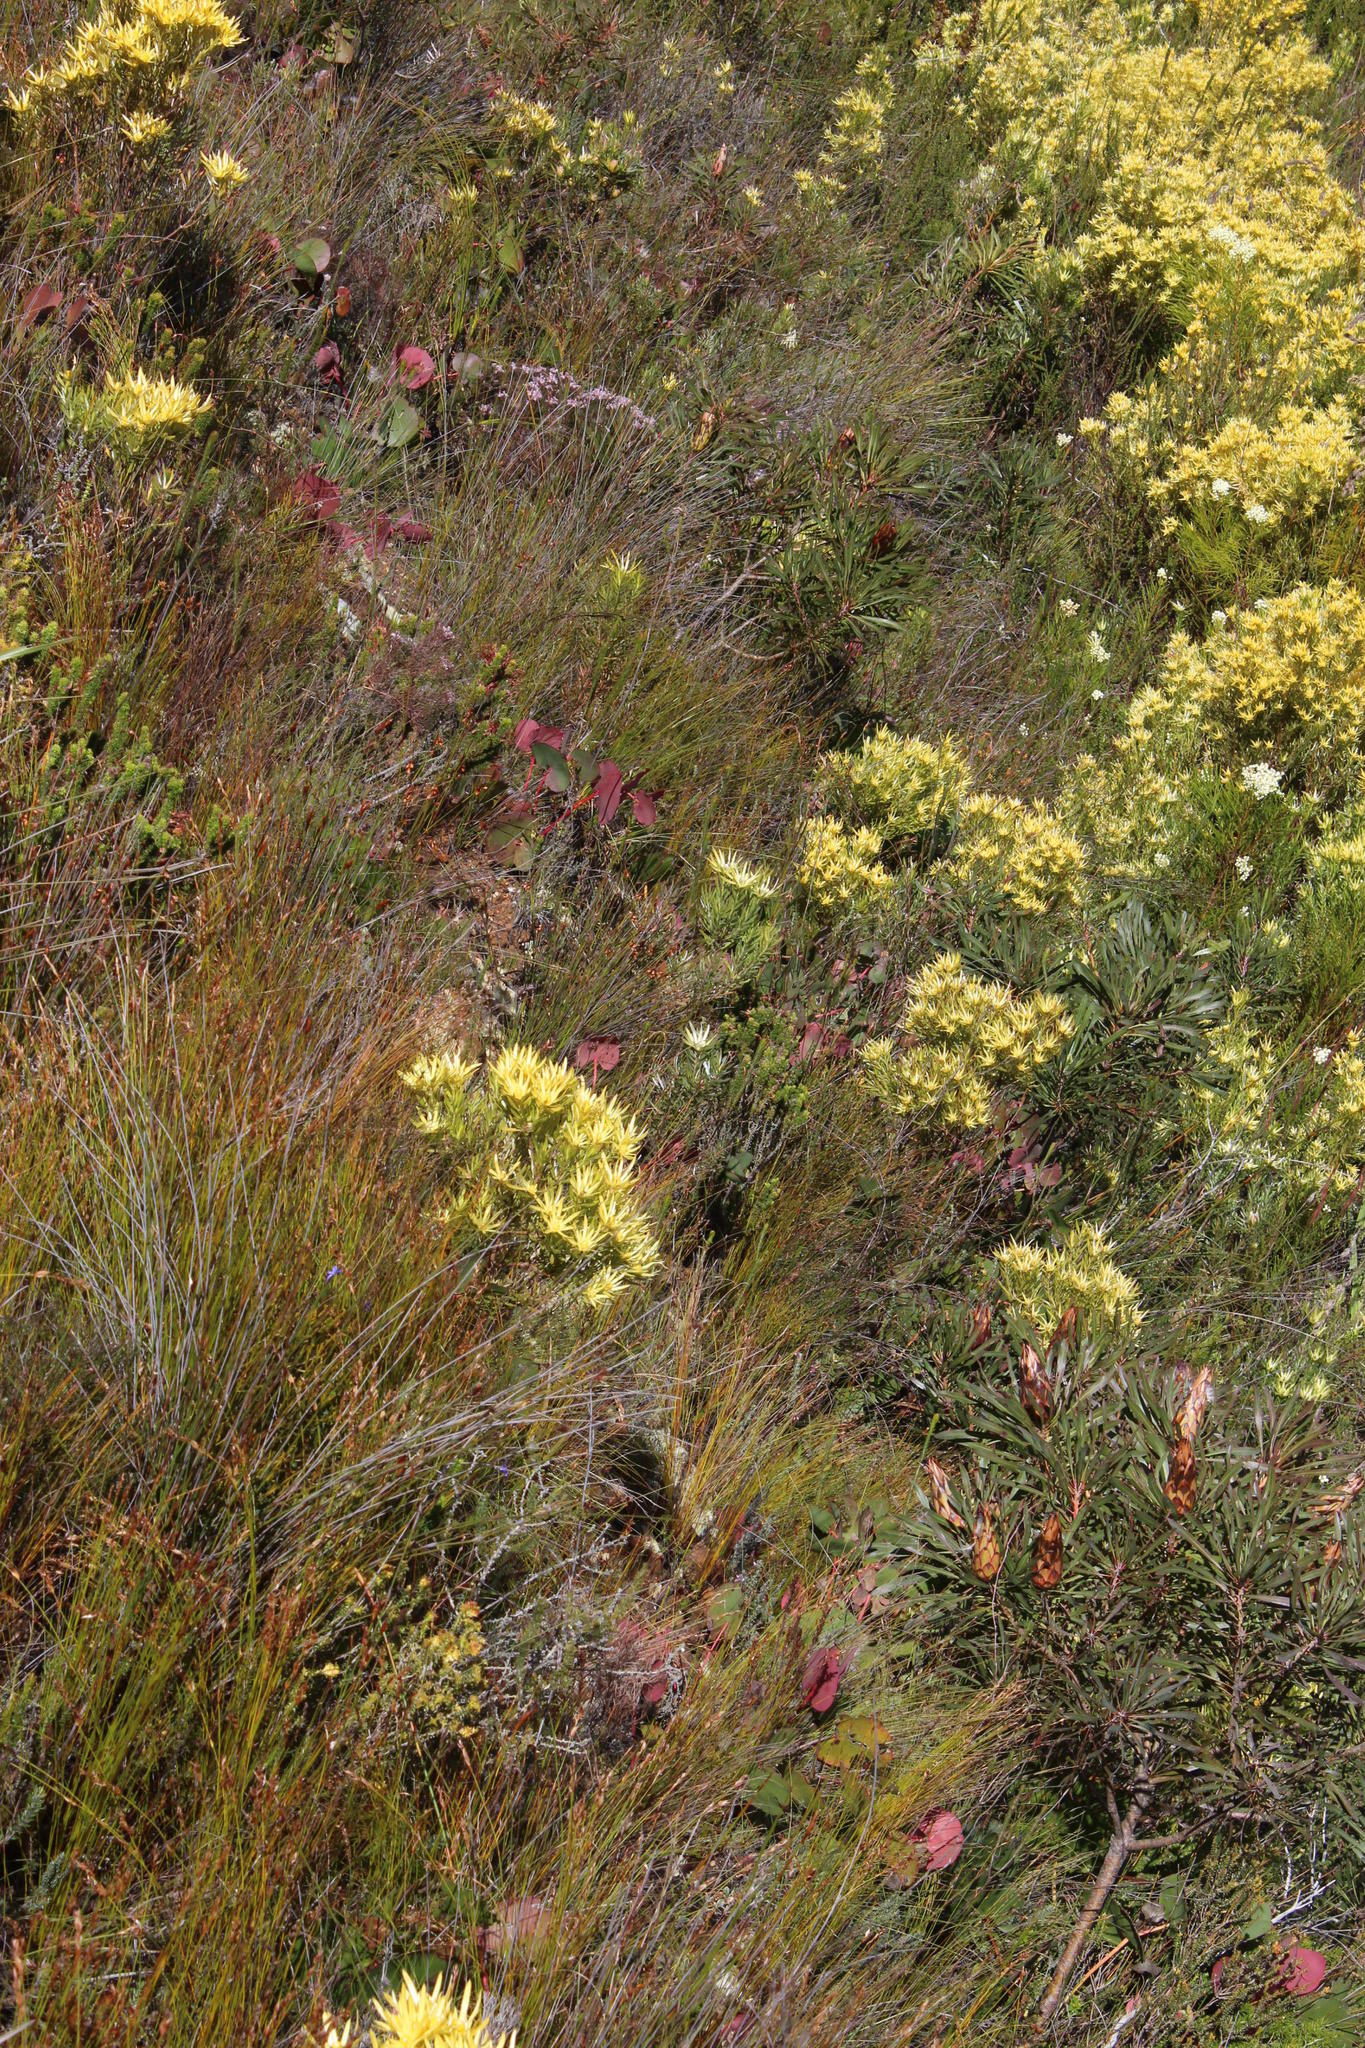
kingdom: Plantae
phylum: Tracheophyta
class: Magnoliopsida
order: Proteales
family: Proteaceae
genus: Protea
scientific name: Protea cordata
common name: Heart-leaf sugarbush
